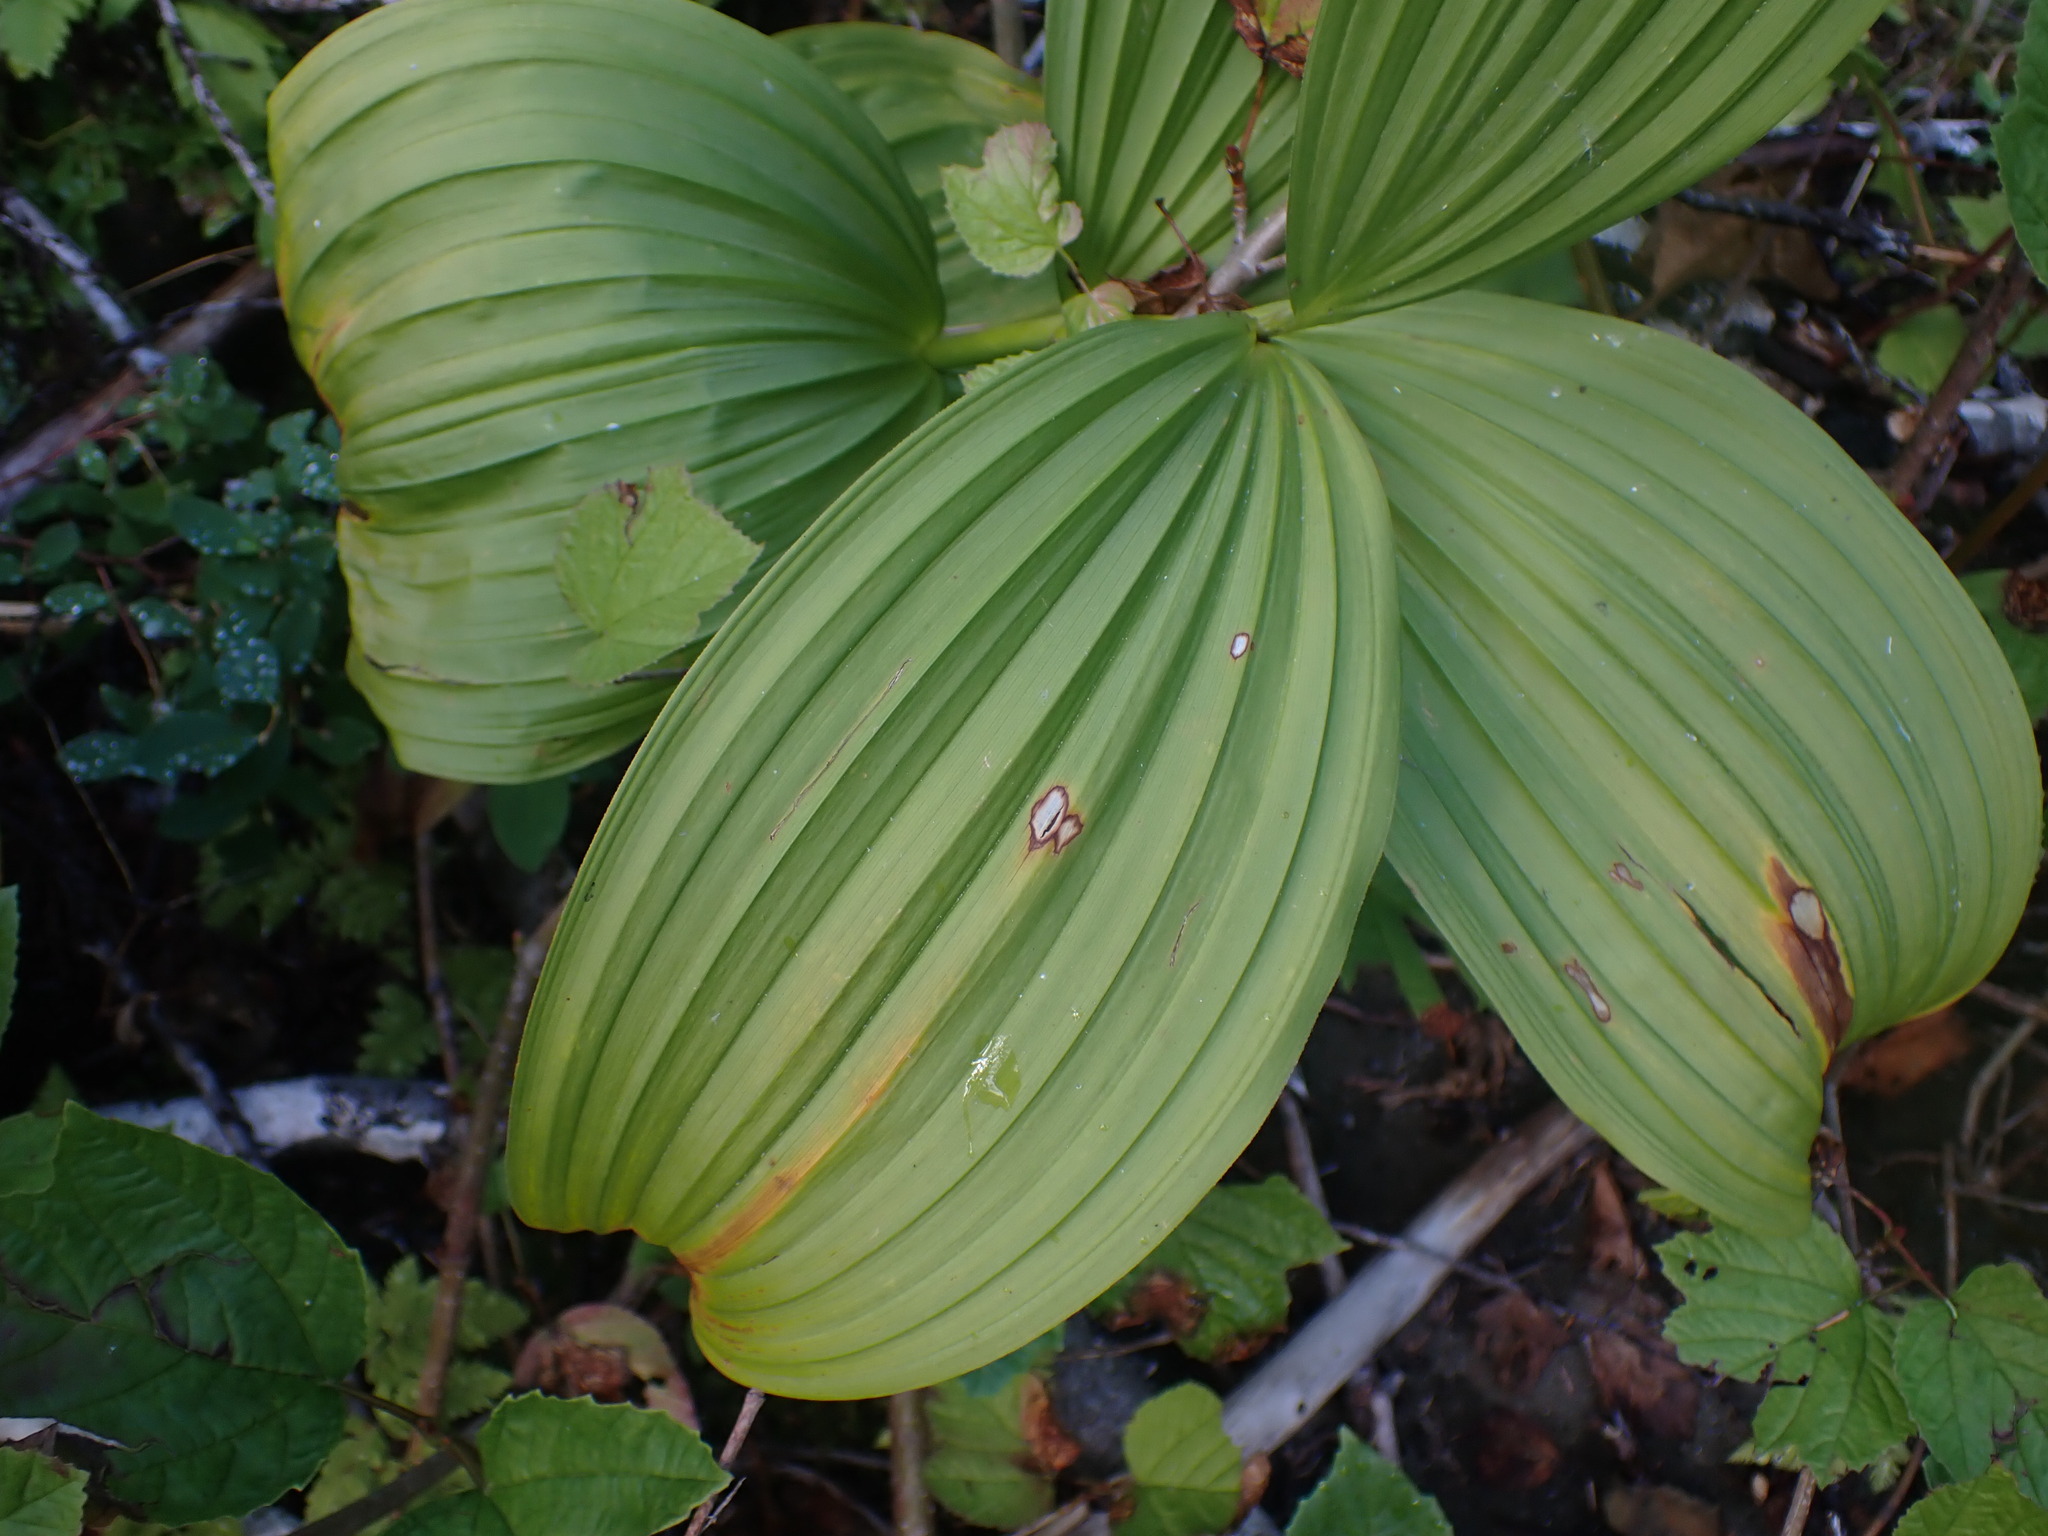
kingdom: Plantae
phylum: Tracheophyta
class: Liliopsida
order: Liliales
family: Melanthiaceae
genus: Veratrum
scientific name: Veratrum viride
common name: American false hellebore
